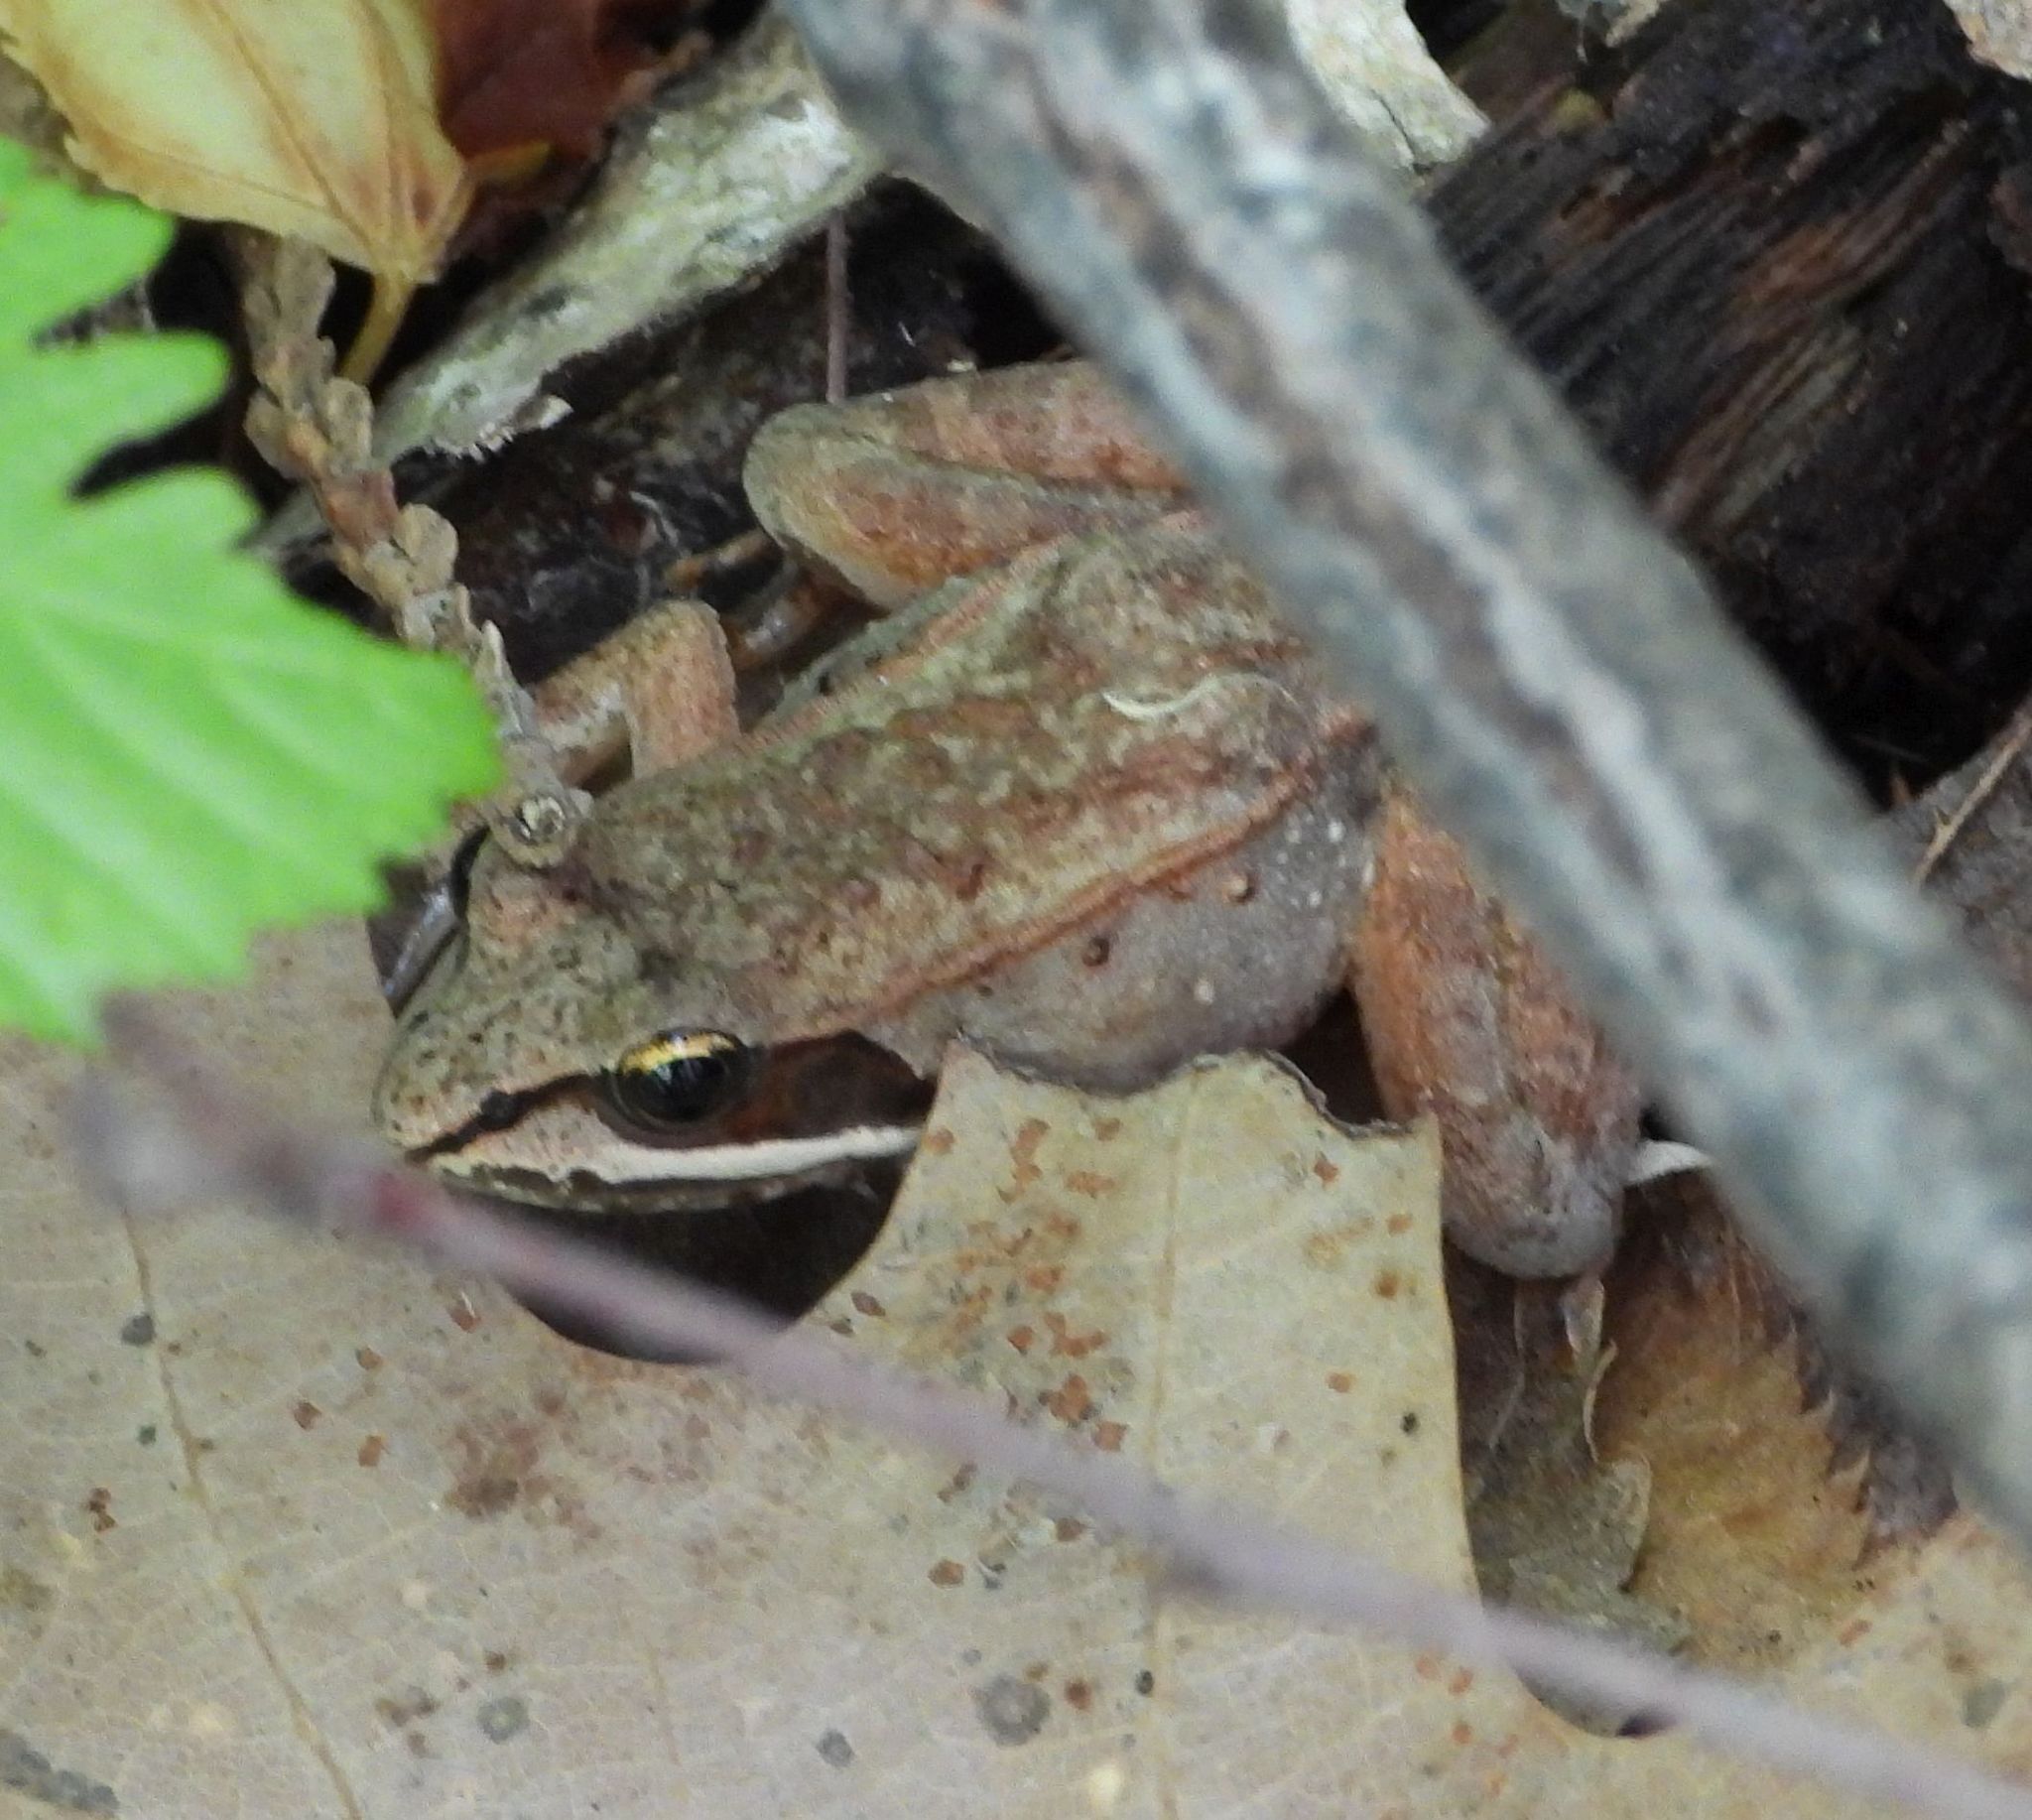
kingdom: Animalia
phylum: Chordata
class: Amphibia
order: Anura
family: Ranidae
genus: Lithobates
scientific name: Lithobates sylvaticus
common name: Wood frog
